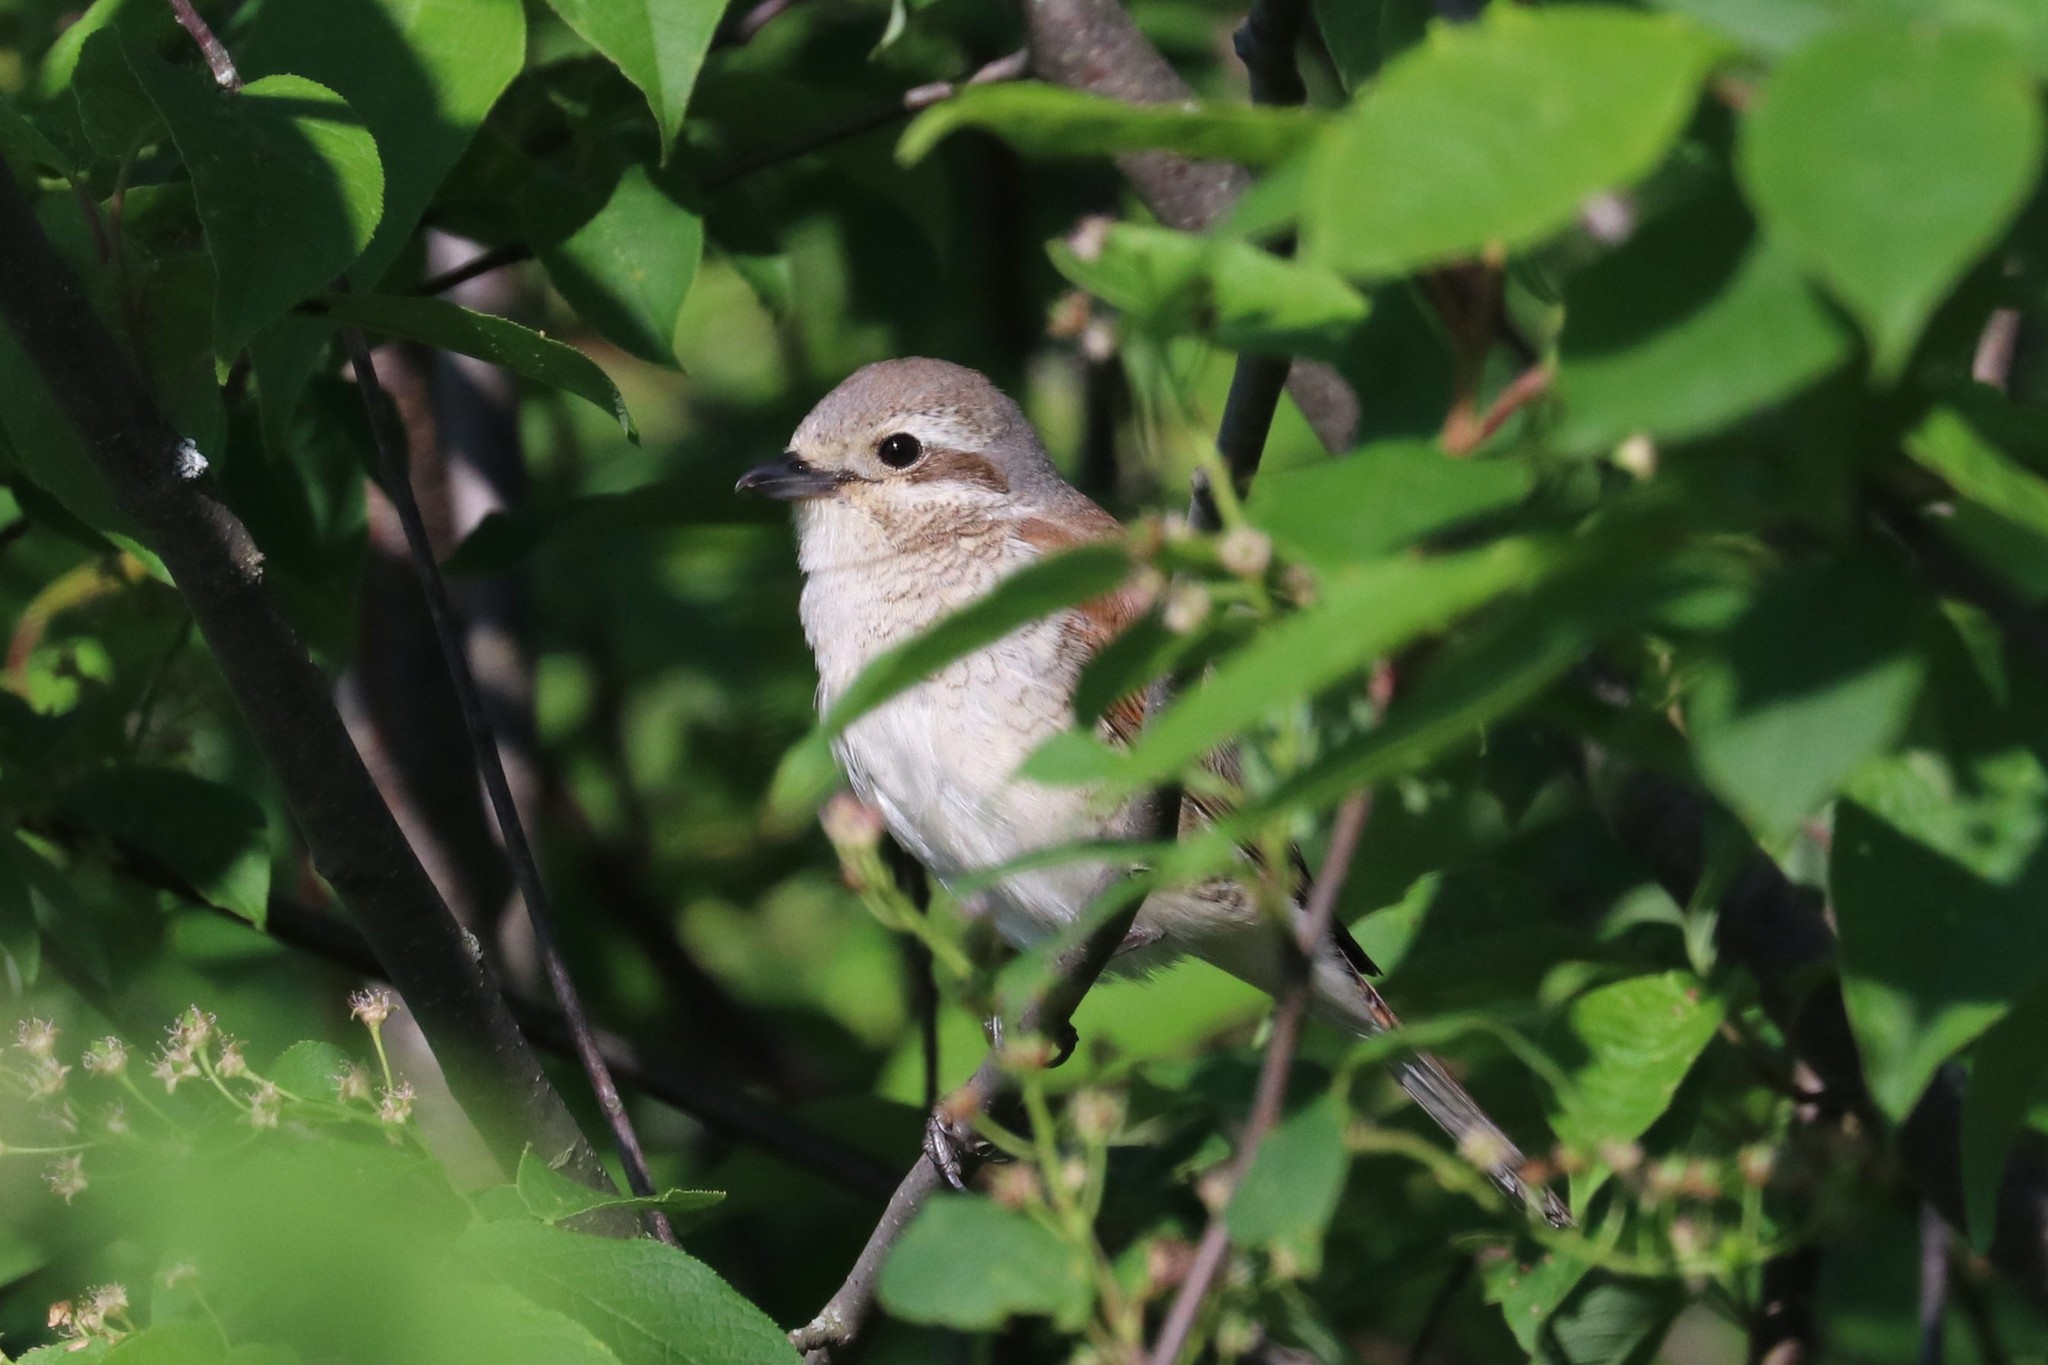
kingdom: Animalia
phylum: Chordata
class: Aves
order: Passeriformes
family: Laniidae
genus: Lanius
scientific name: Lanius collurio
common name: Red-backed shrike
